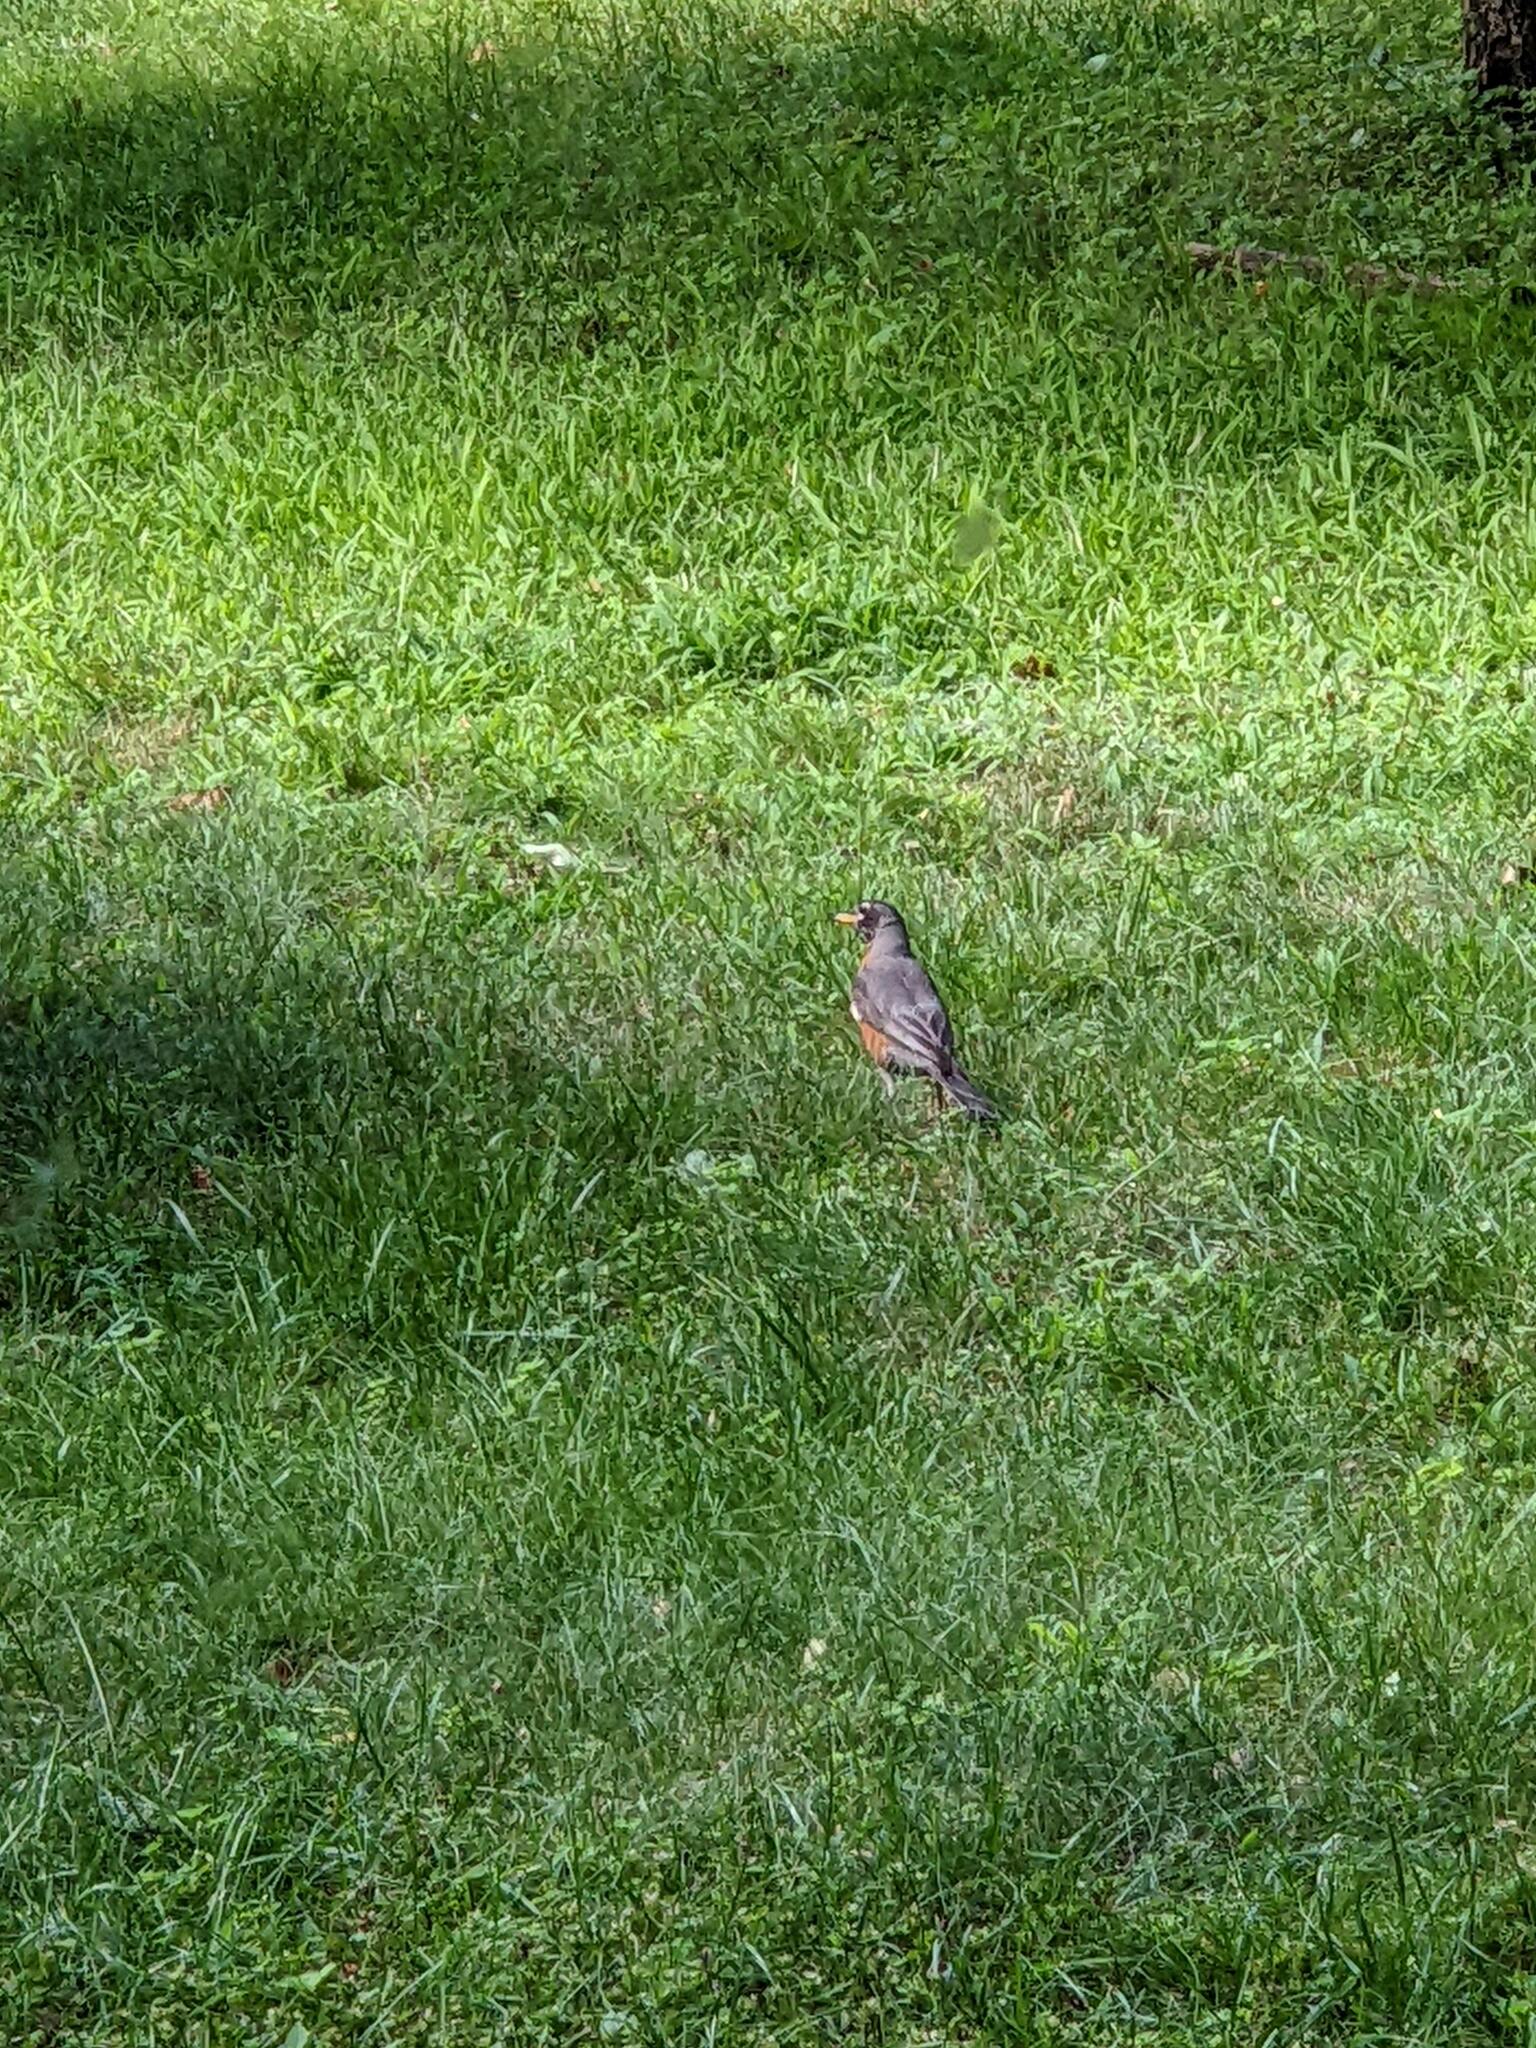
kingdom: Animalia
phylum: Chordata
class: Aves
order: Passeriformes
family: Turdidae
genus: Turdus
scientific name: Turdus migratorius
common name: American robin
